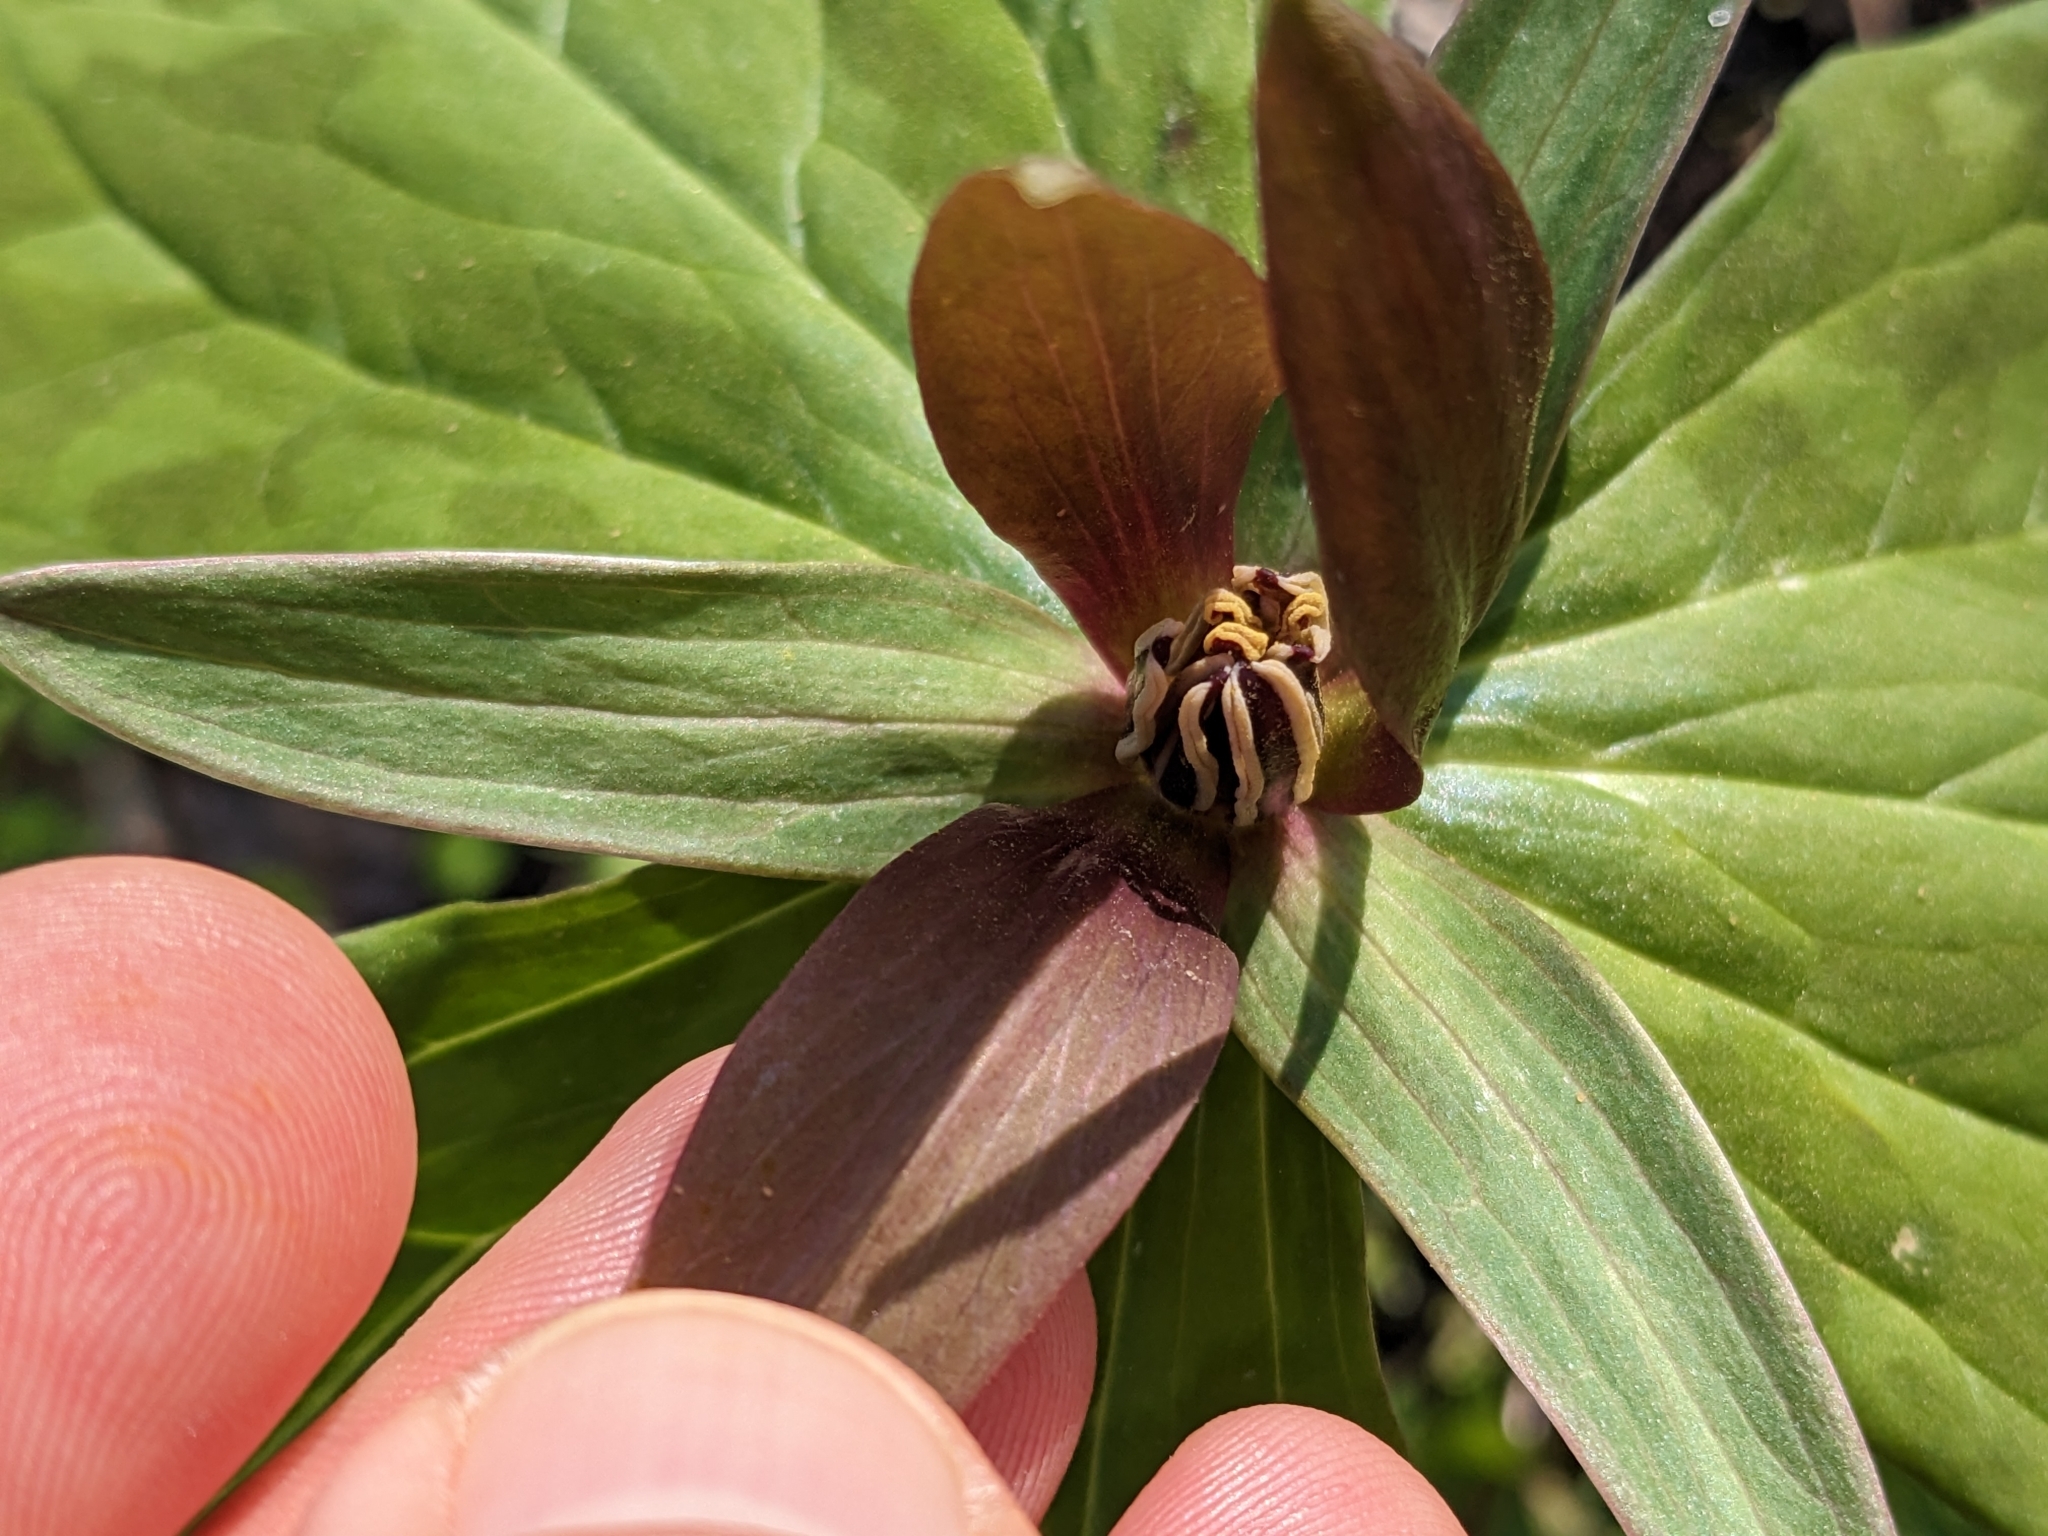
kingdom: Plantae
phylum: Tracheophyta
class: Liliopsida
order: Liliales
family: Melanthiaceae
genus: Trillium
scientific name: Trillium cuneatum
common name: Cuneate trillium
